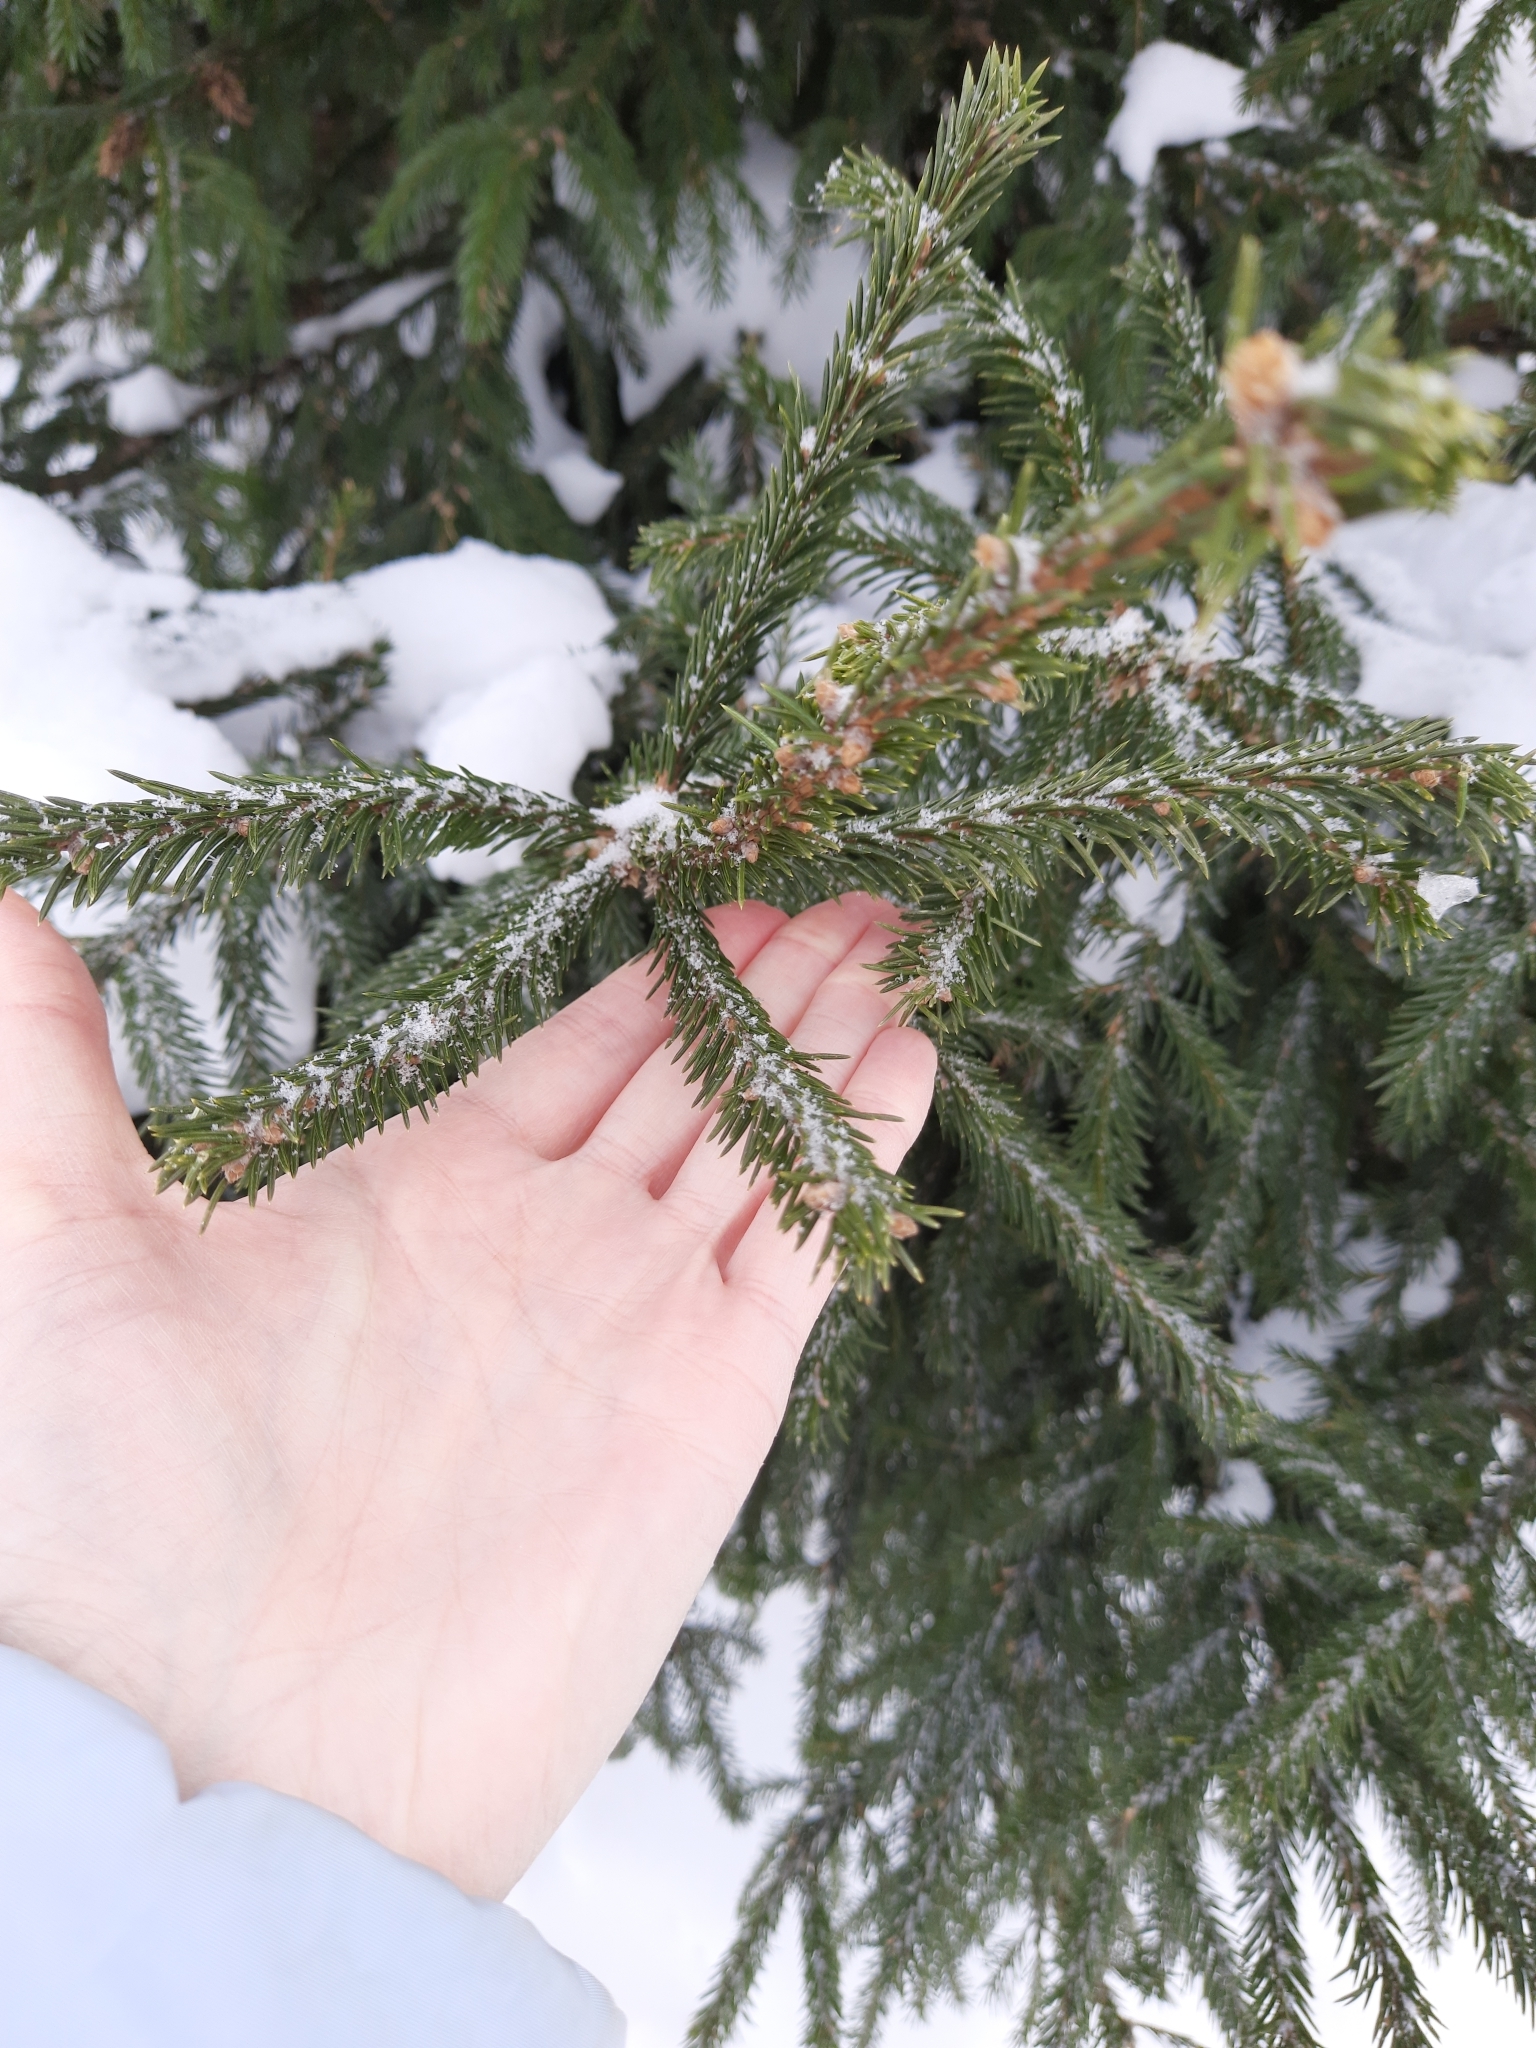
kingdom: Plantae
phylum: Tracheophyta
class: Pinopsida
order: Pinales
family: Pinaceae
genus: Picea
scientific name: Picea obovata
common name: Siberian spruce
